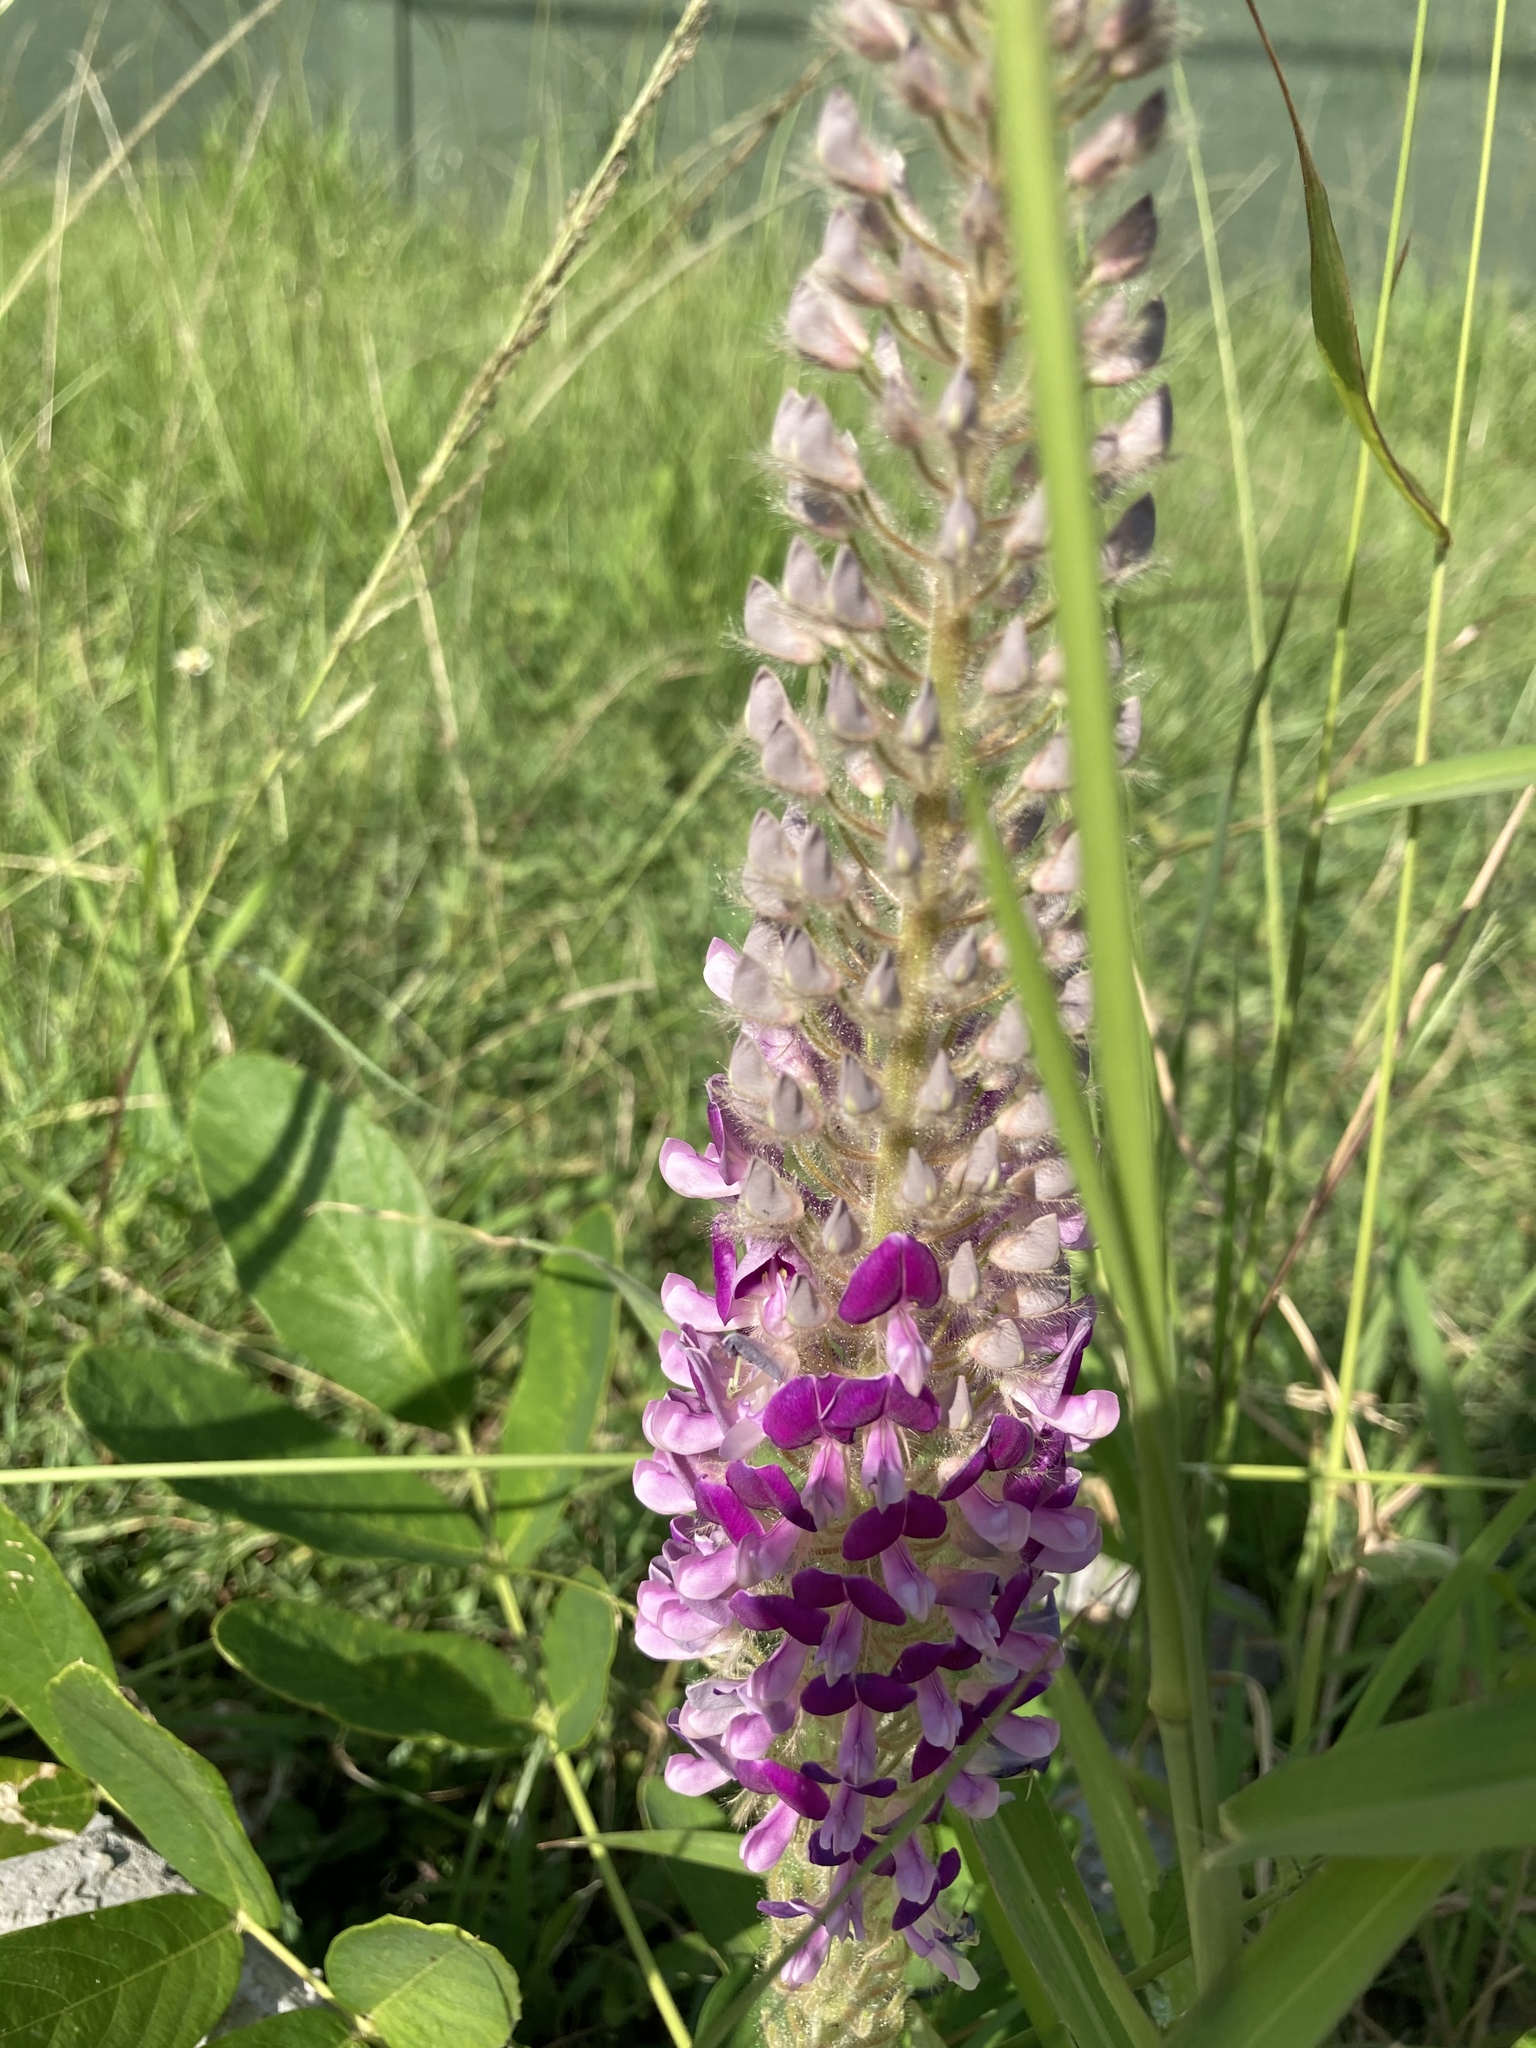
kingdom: Plantae
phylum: Tracheophyta
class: Magnoliopsida
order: Fabales
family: Fabaceae
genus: Uraria
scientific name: Uraria crinita
